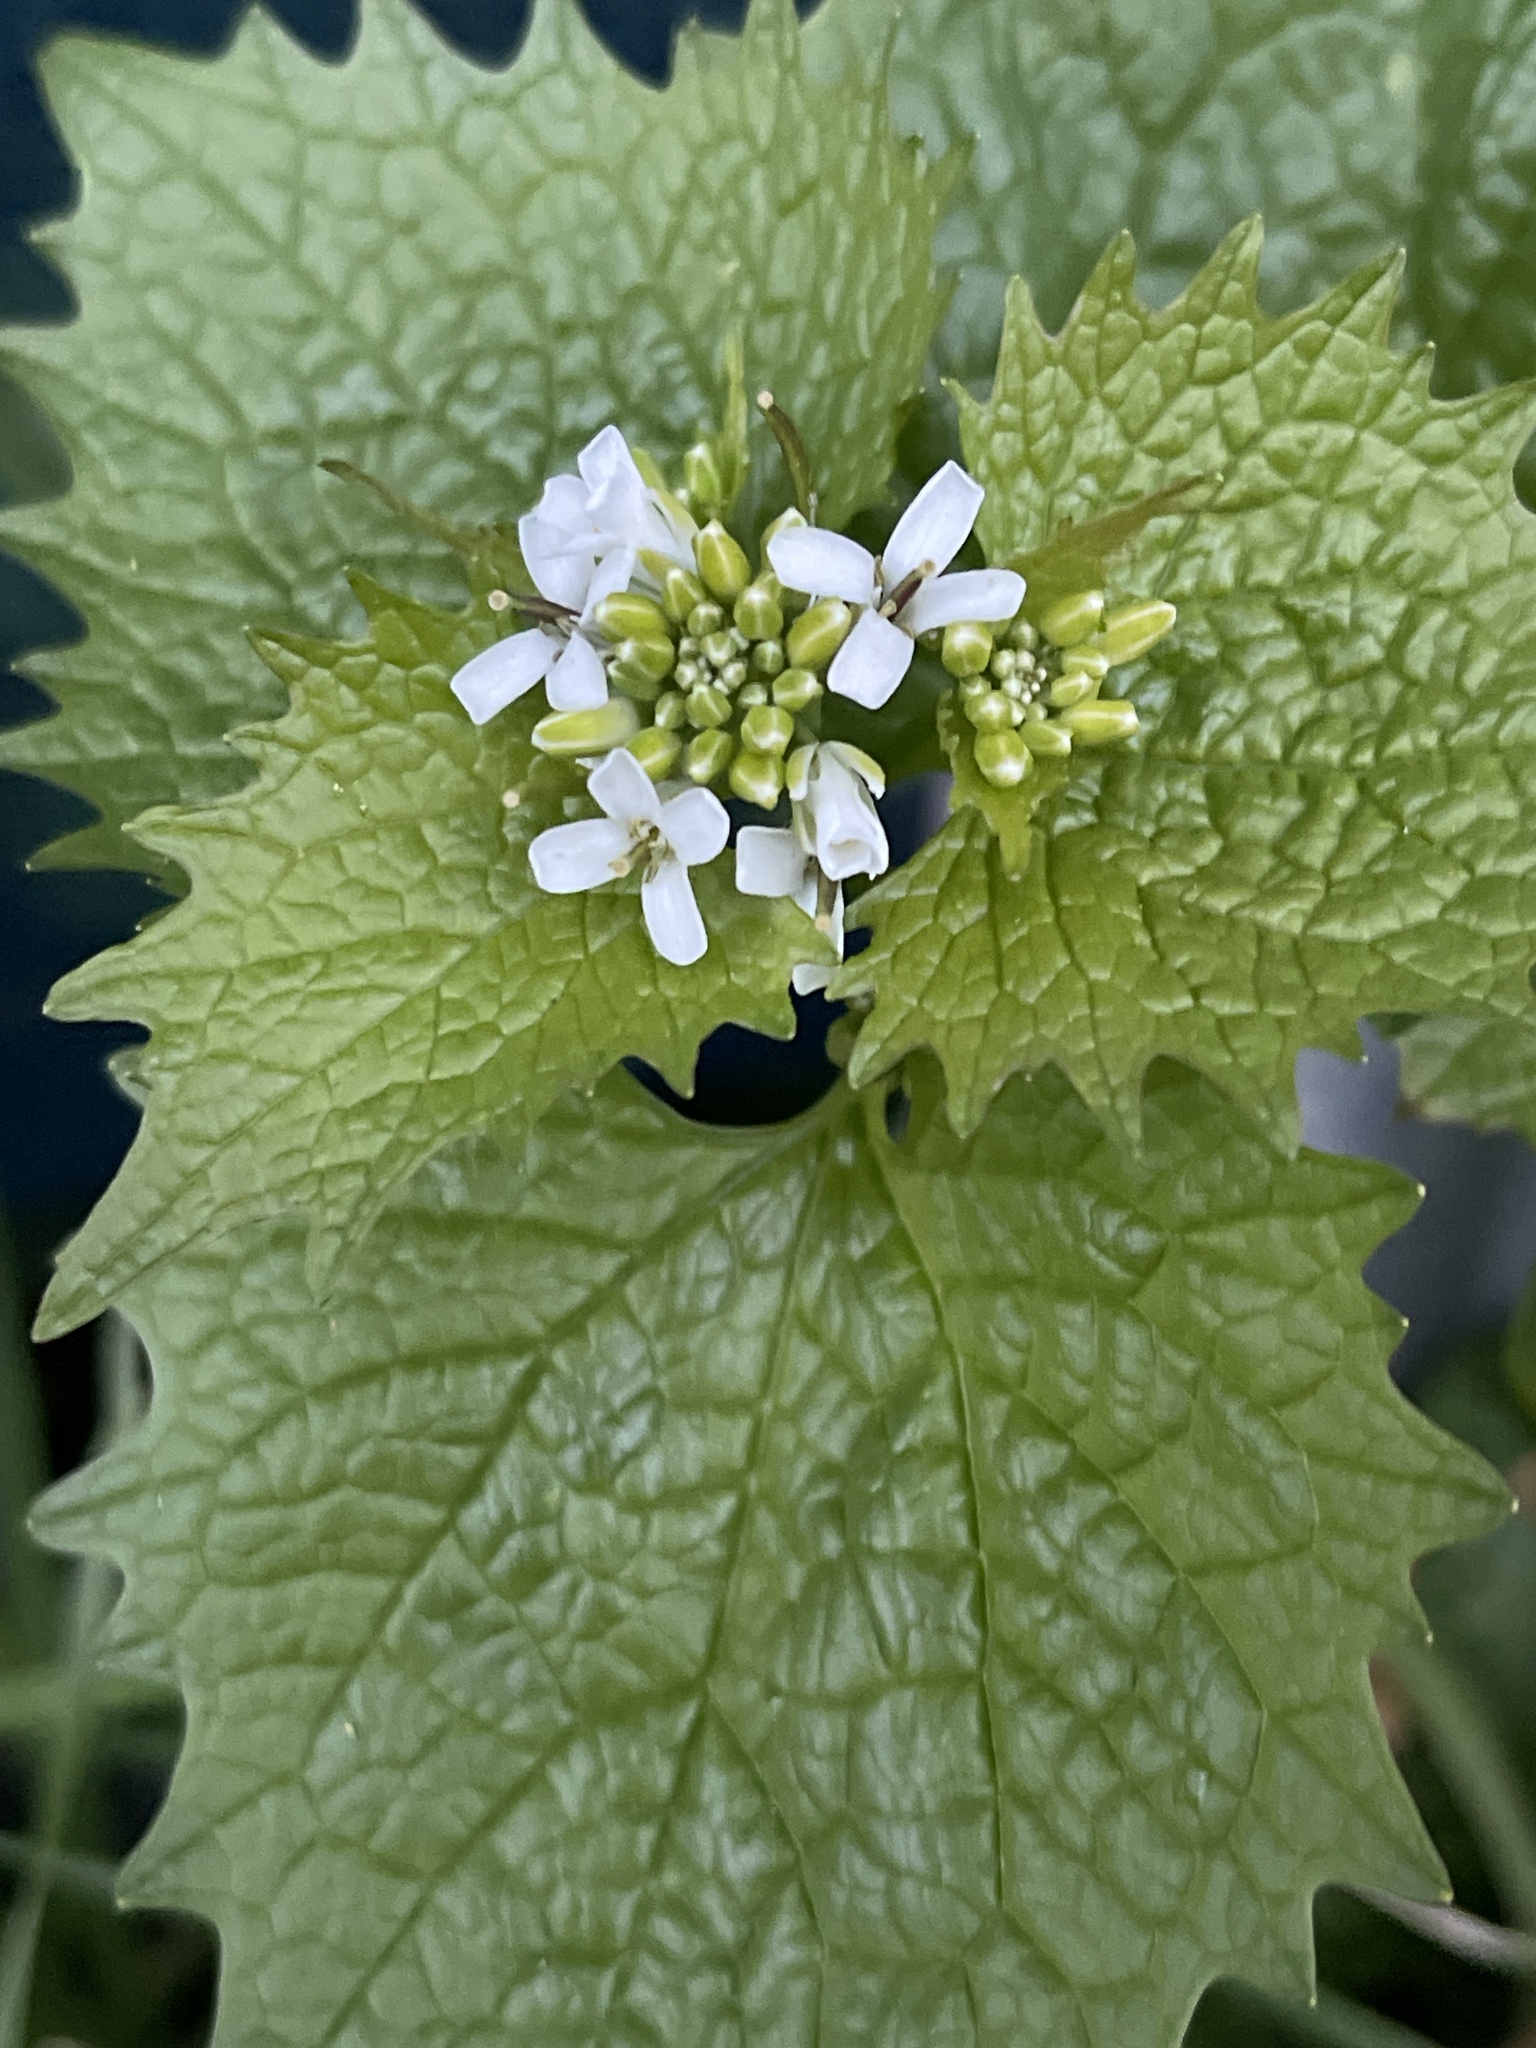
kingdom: Plantae
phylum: Tracheophyta
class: Magnoliopsida
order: Brassicales
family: Brassicaceae
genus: Alliaria
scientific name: Alliaria petiolata
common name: Garlic mustard
